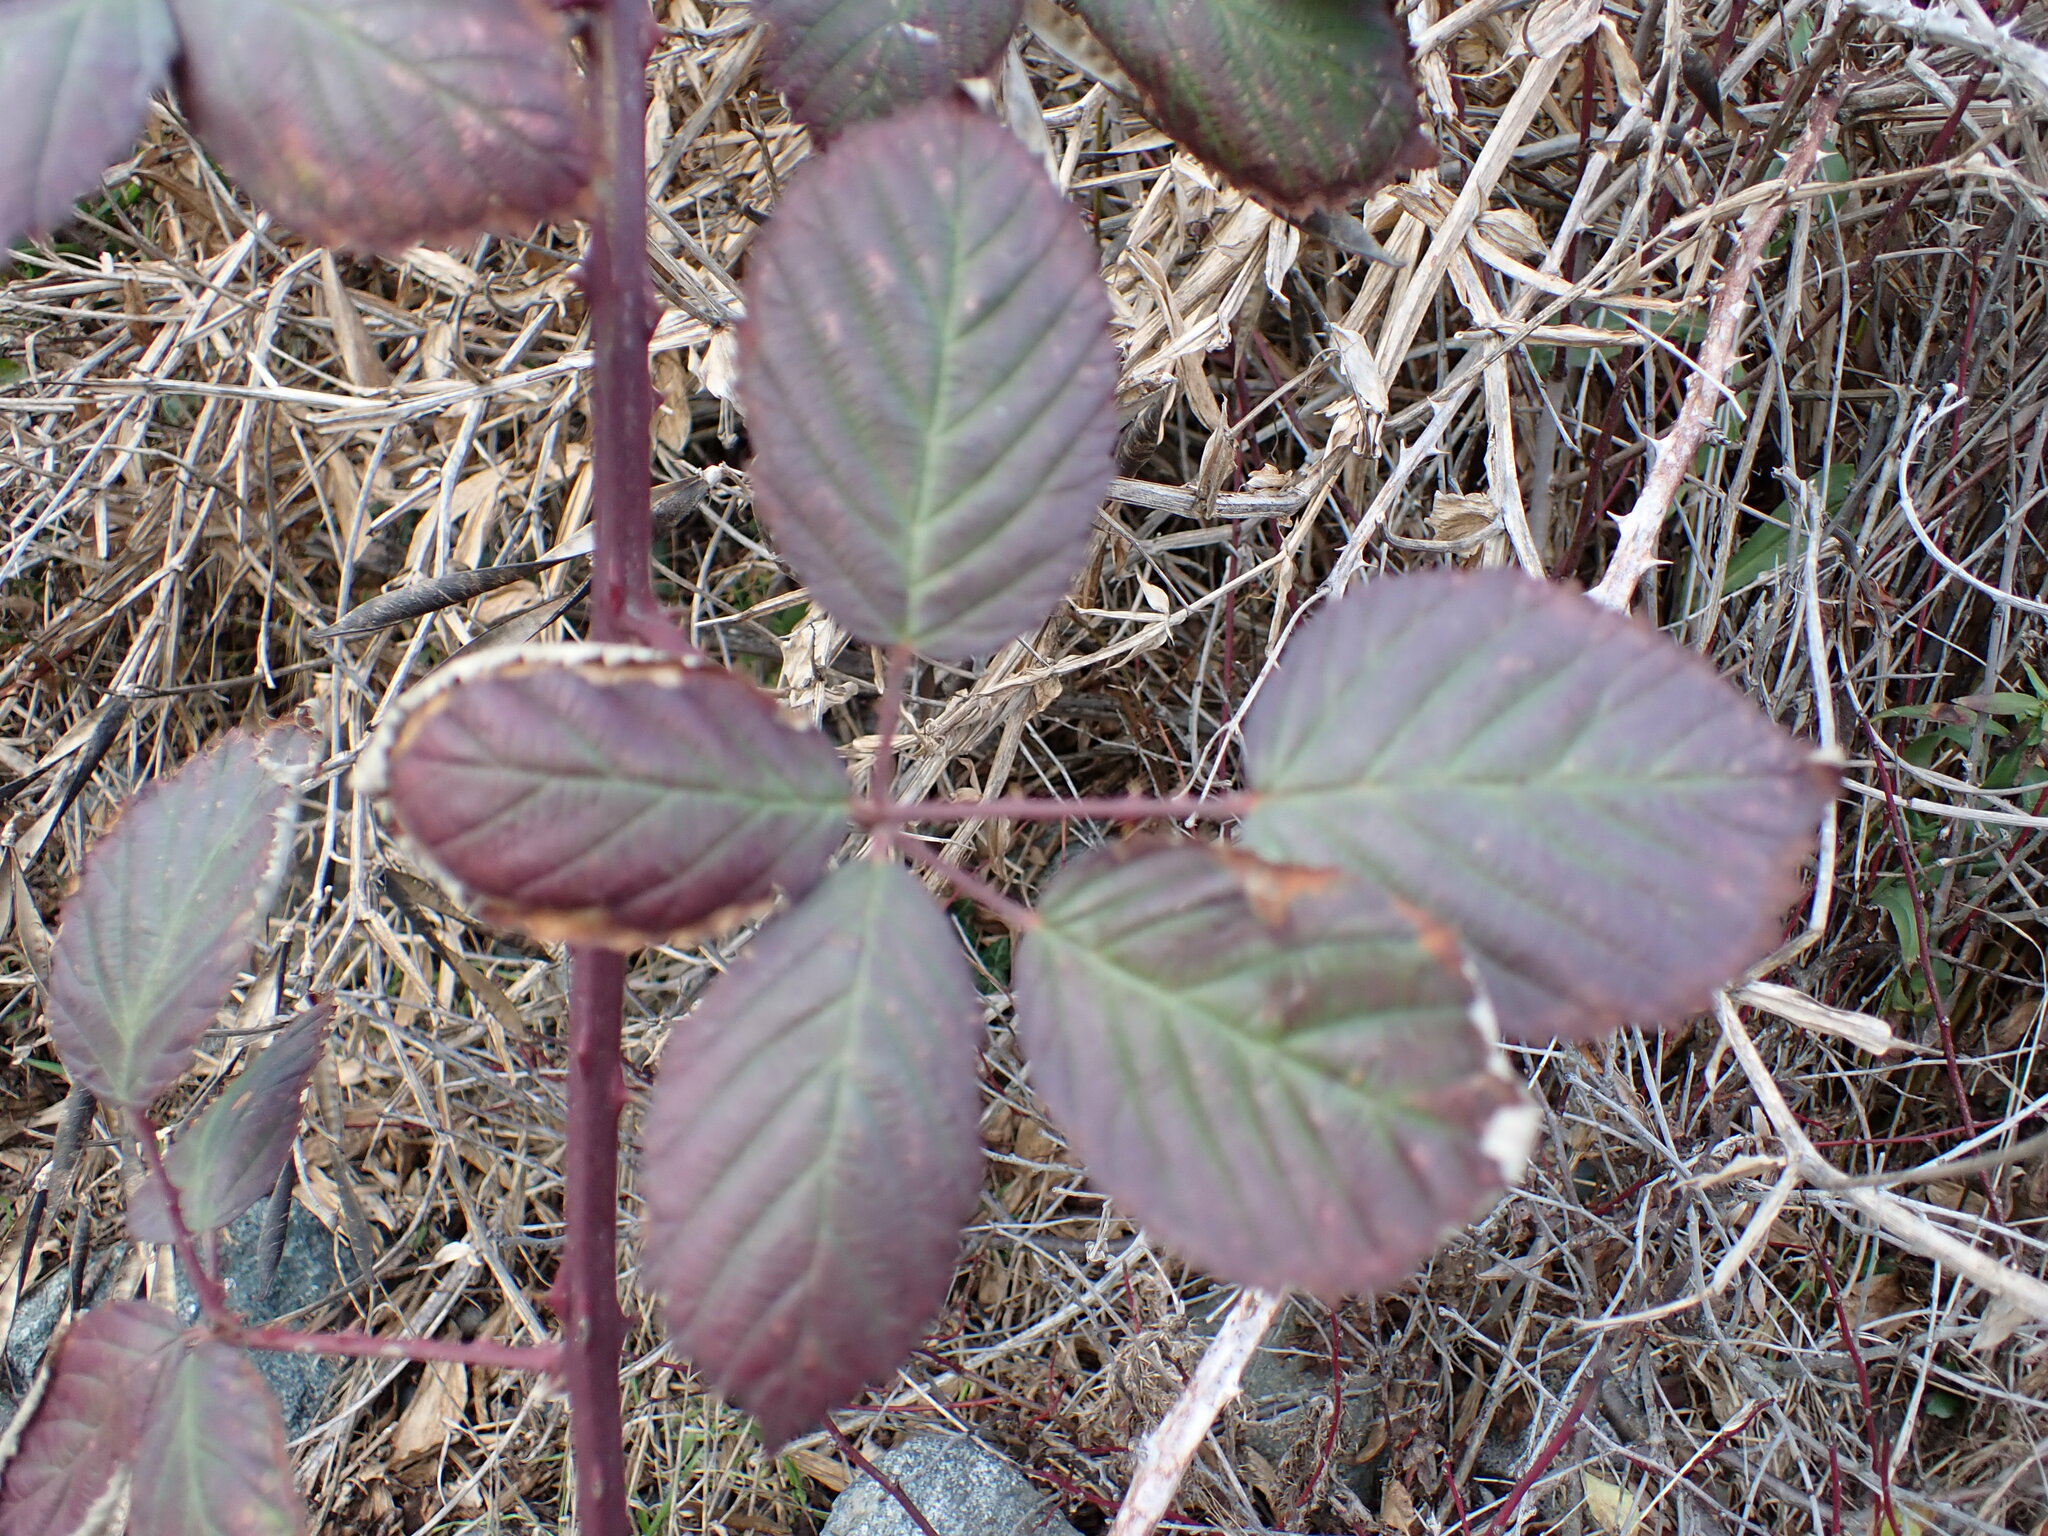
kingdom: Plantae
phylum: Tracheophyta
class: Magnoliopsida
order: Rosales
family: Rosaceae
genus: Rubus
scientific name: Rubus bifrons
